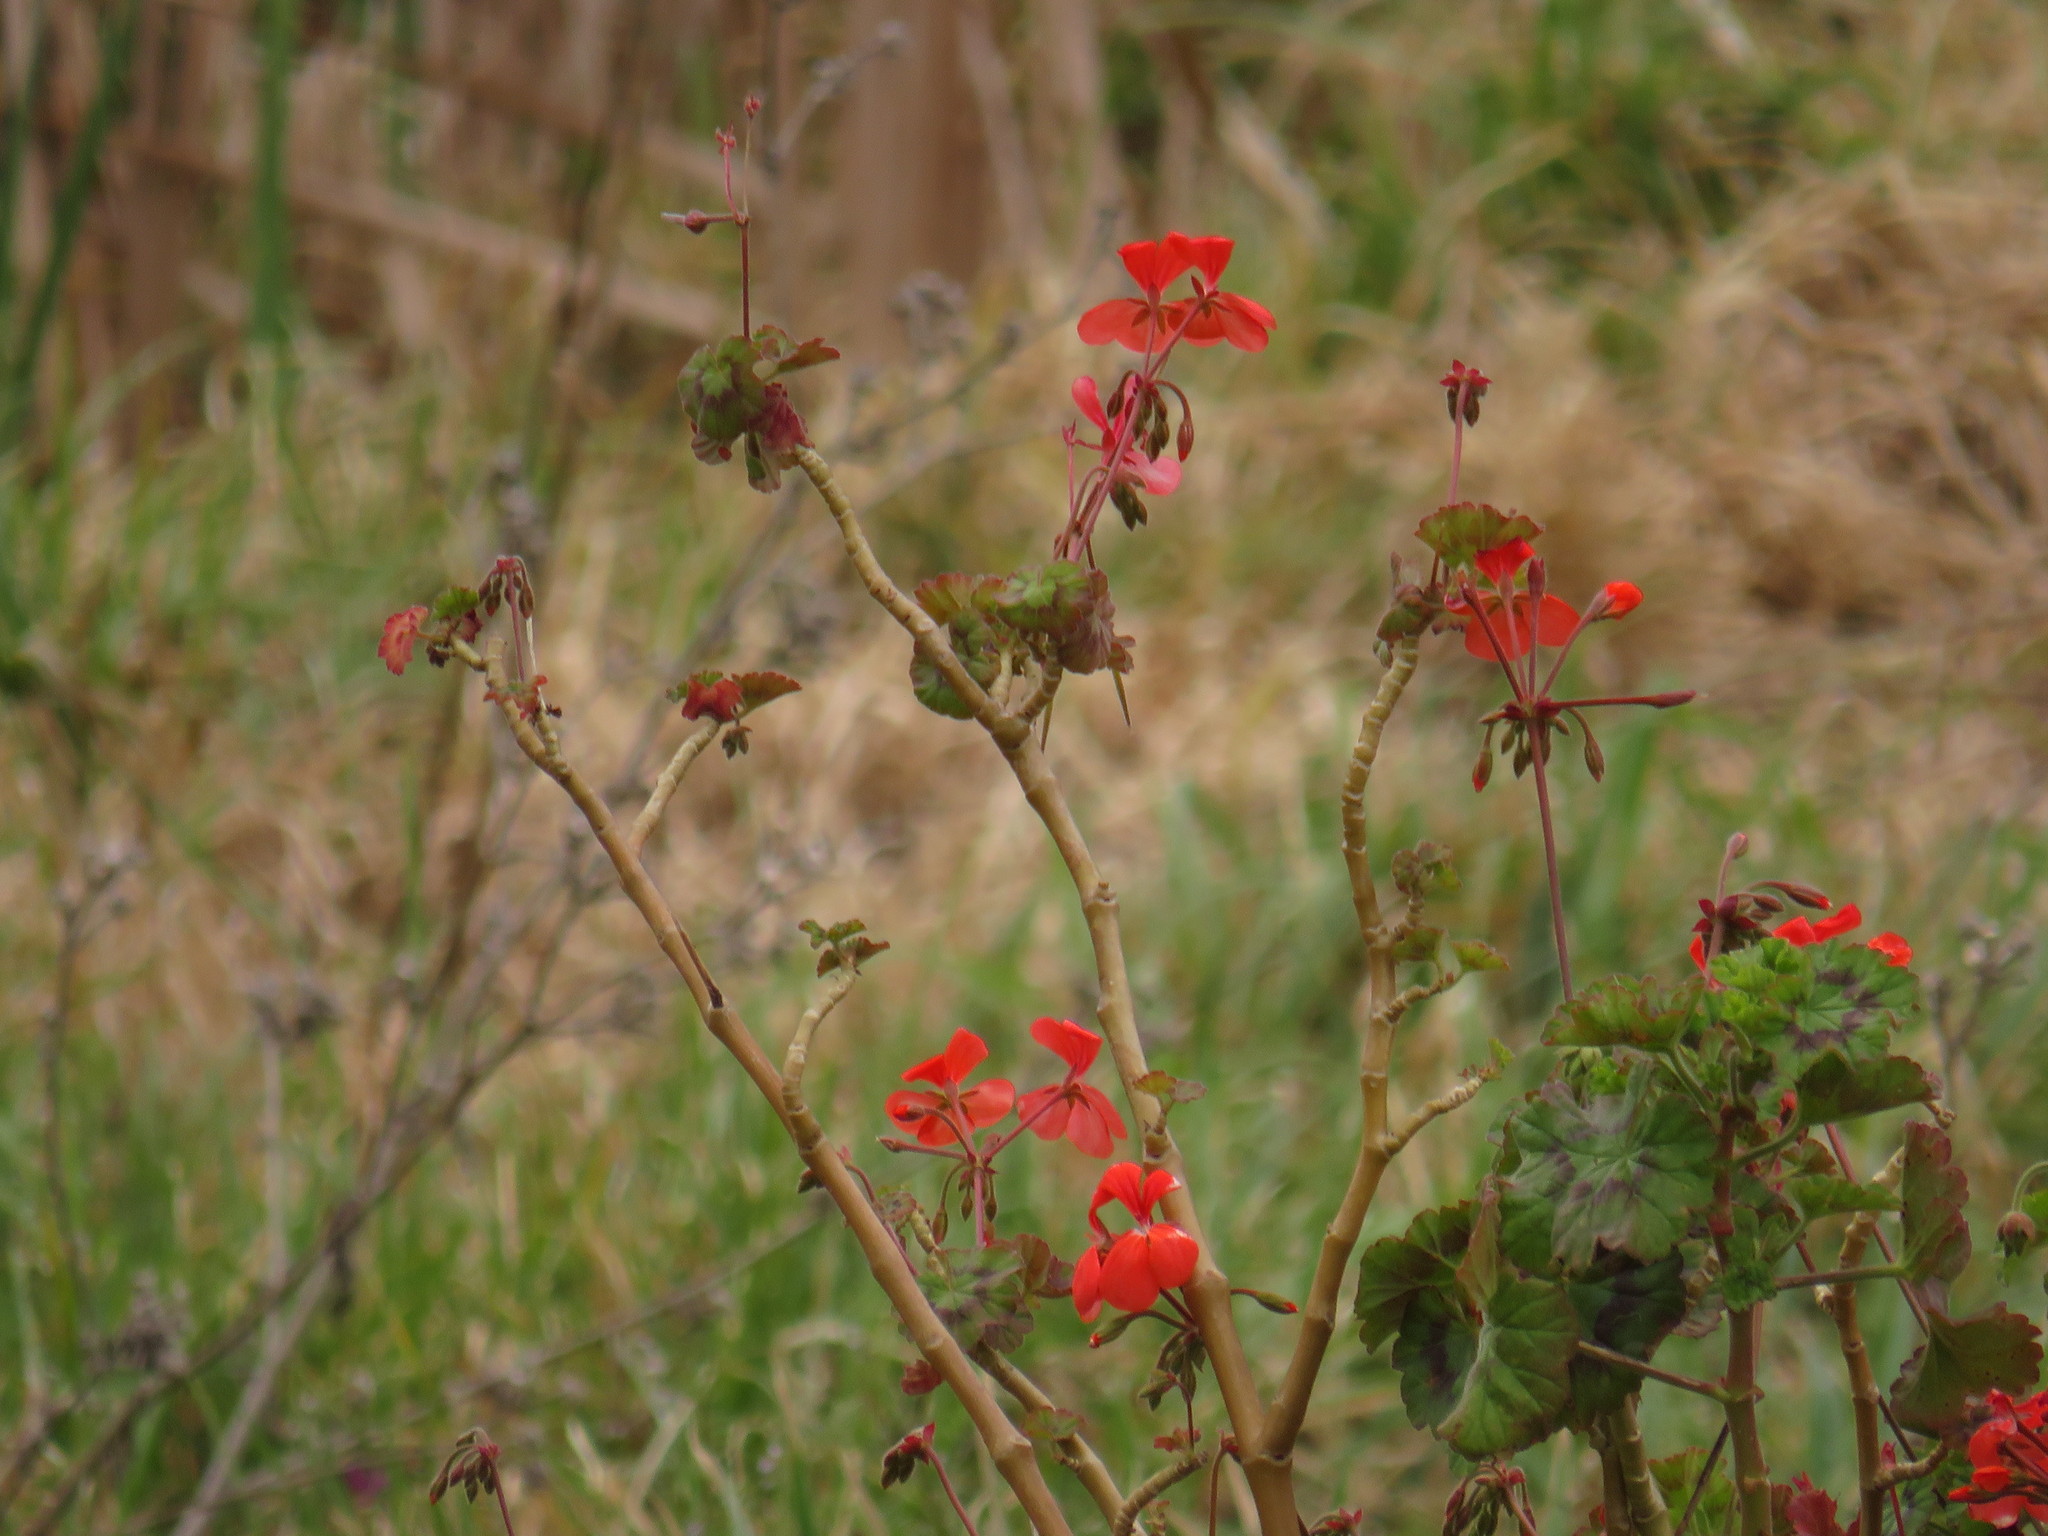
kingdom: Plantae
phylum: Tracheophyta
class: Magnoliopsida
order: Geraniales
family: Geraniaceae
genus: Pelargonium
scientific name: Pelargonium hybridum
